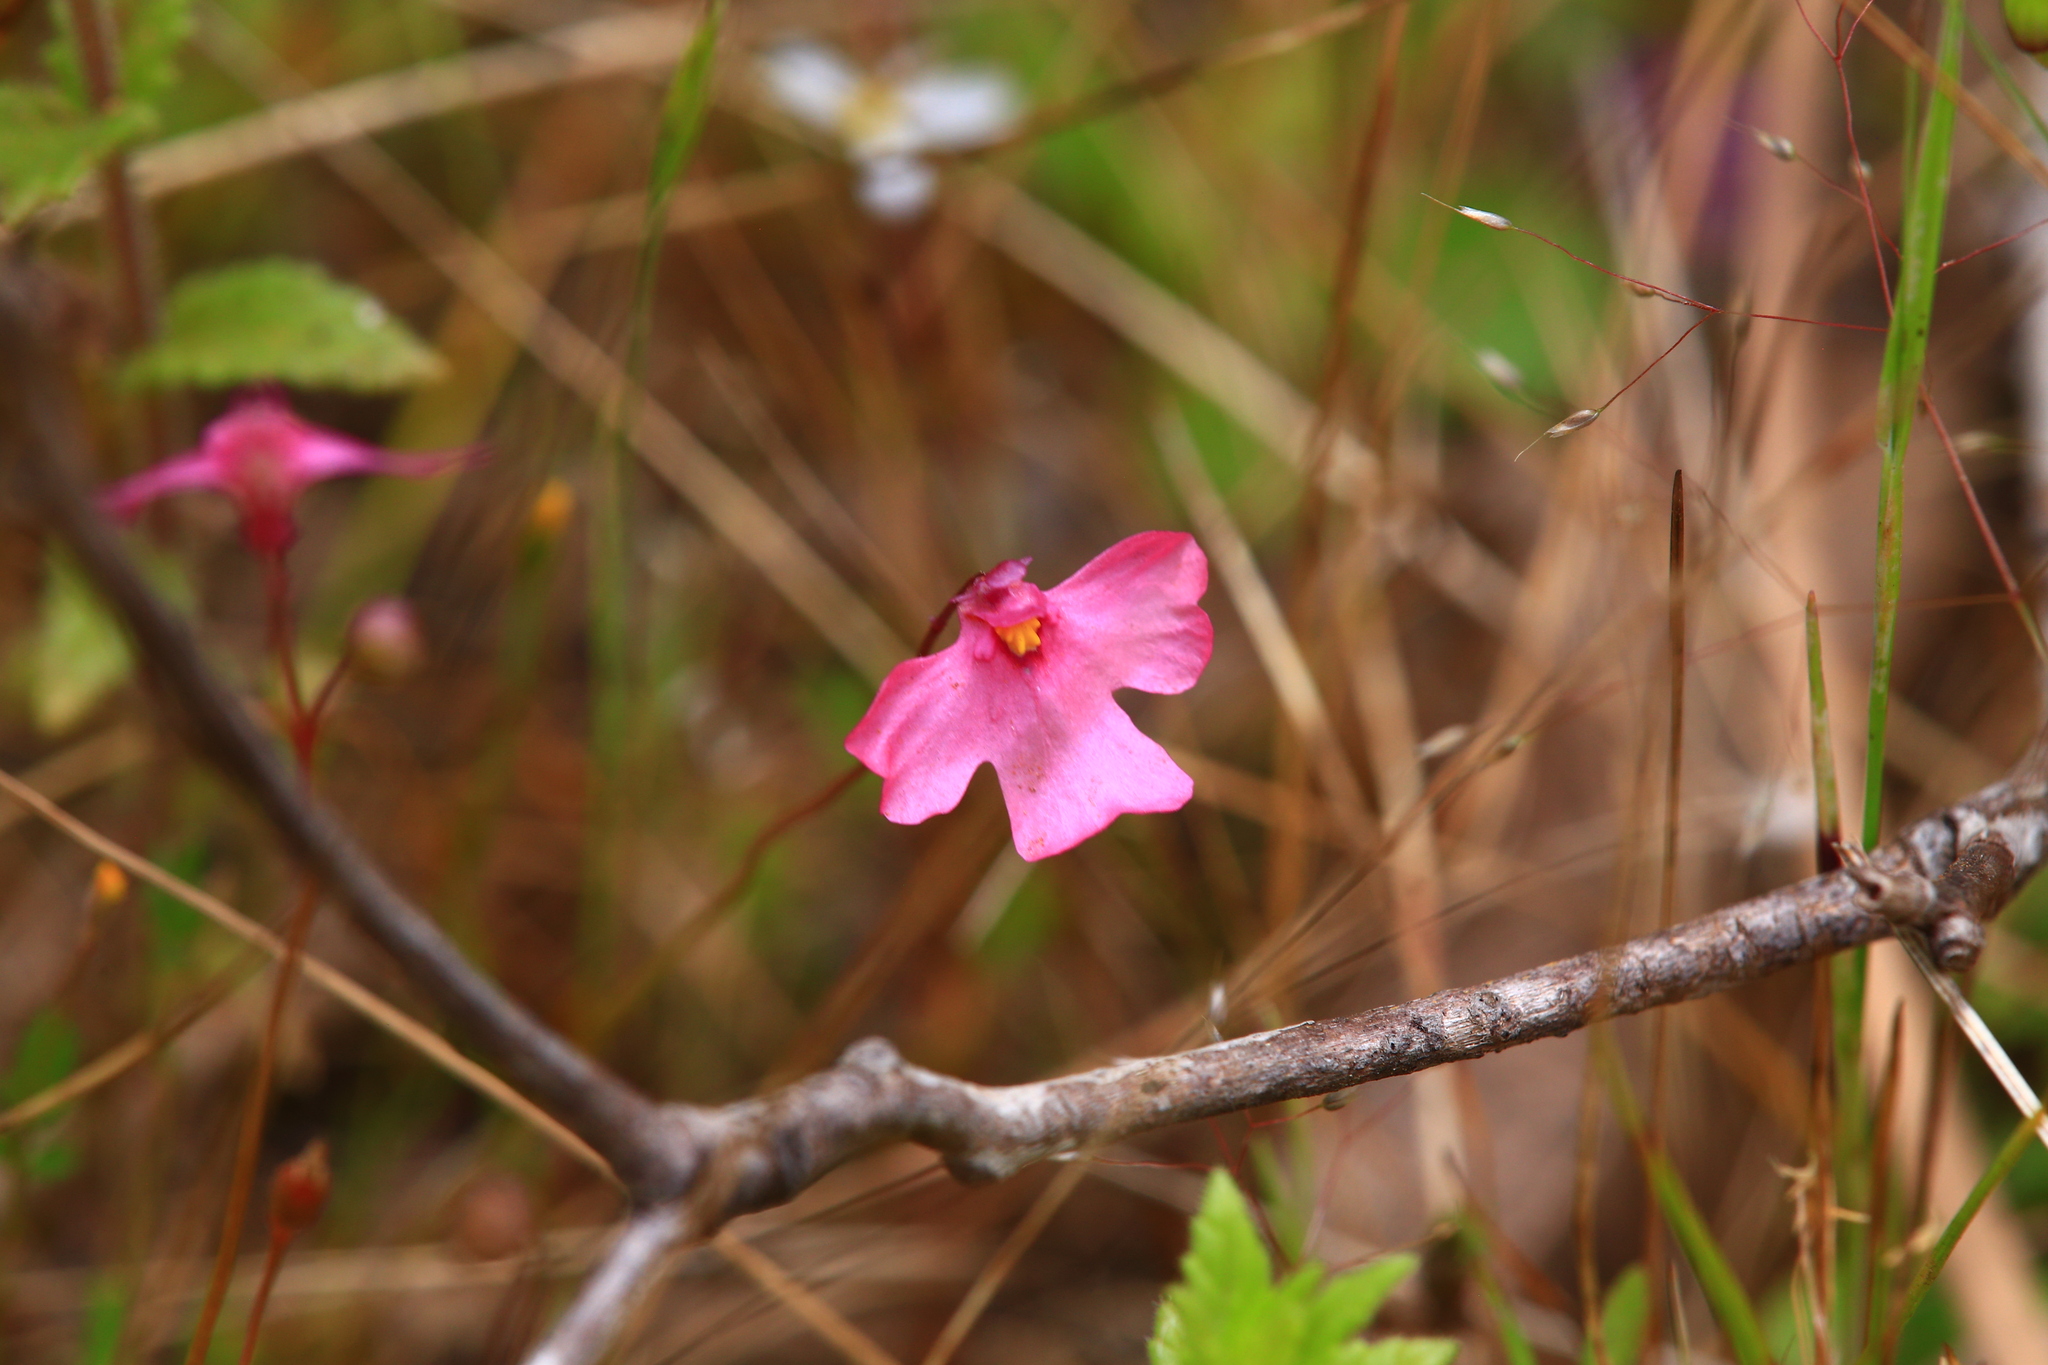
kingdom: Plantae
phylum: Tracheophyta
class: Magnoliopsida
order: Lamiales
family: Lentibulariaceae
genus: Utricularia
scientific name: Utricularia multifida
